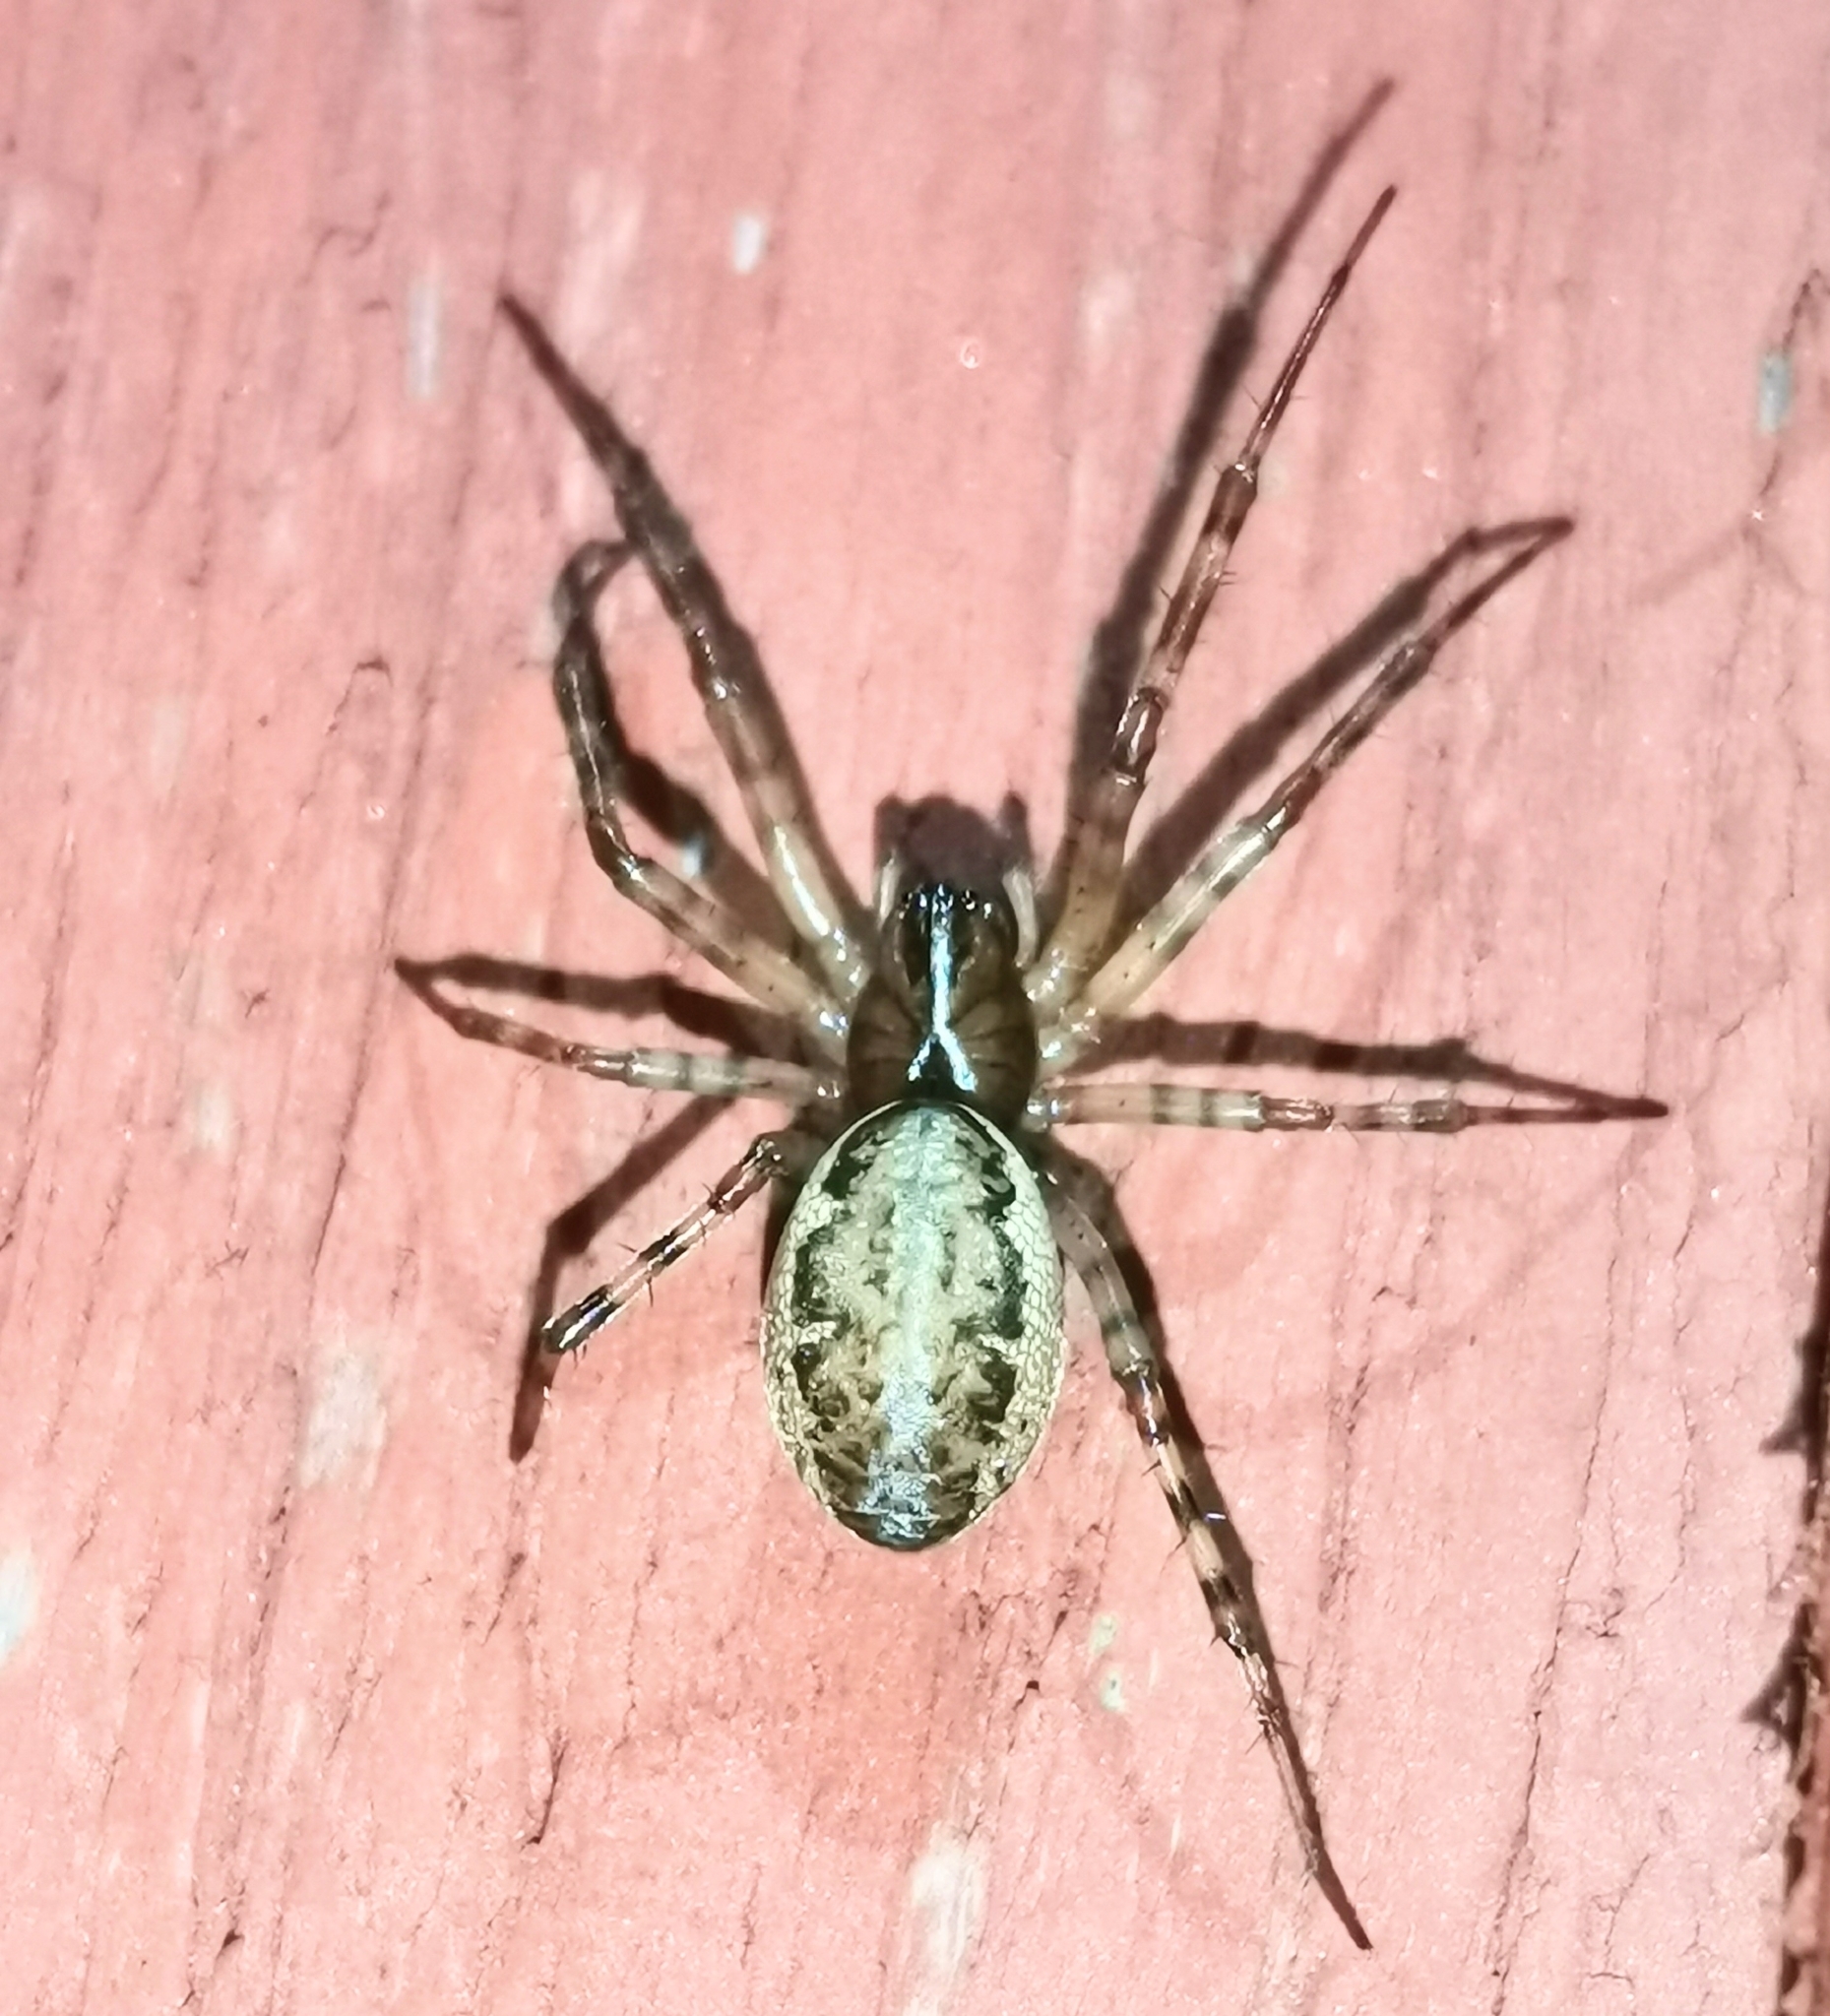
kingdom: Animalia
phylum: Arthropoda
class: Arachnida
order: Araneae
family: Linyphiidae
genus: Neriene
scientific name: Neriene montana
